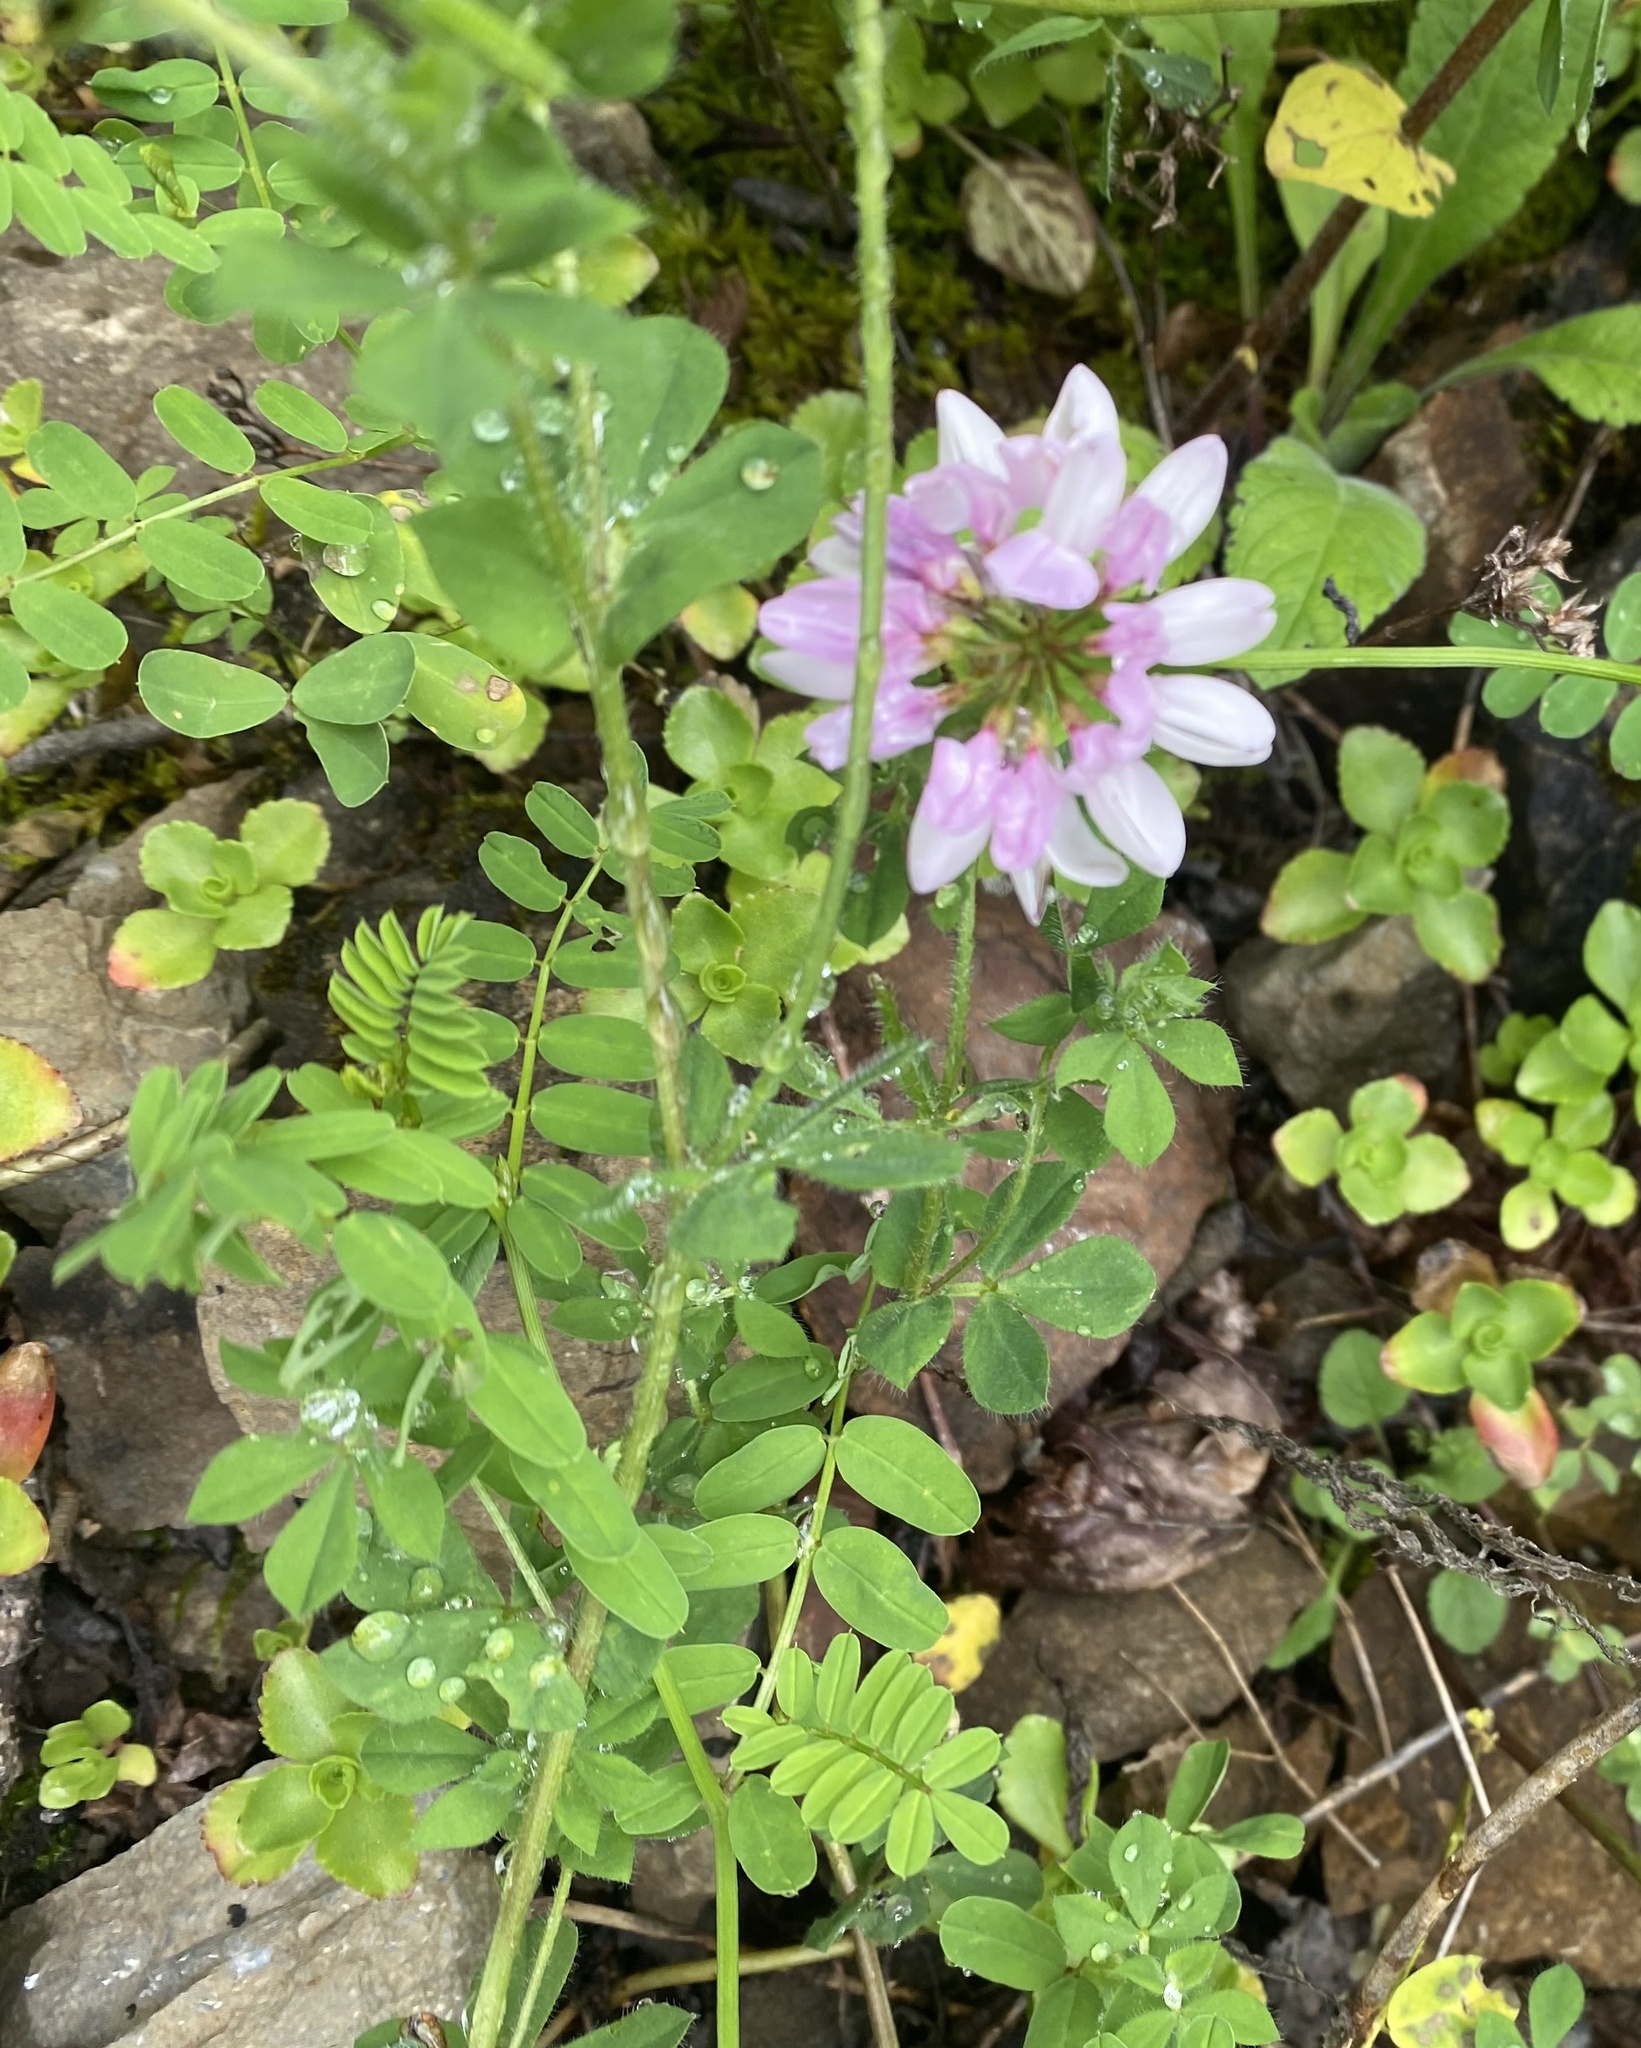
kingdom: Plantae
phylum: Tracheophyta
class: Magnoliopsida
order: Fabales
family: Fabaceae
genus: Coronilla
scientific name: Coronilla varia
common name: Crownvetch
